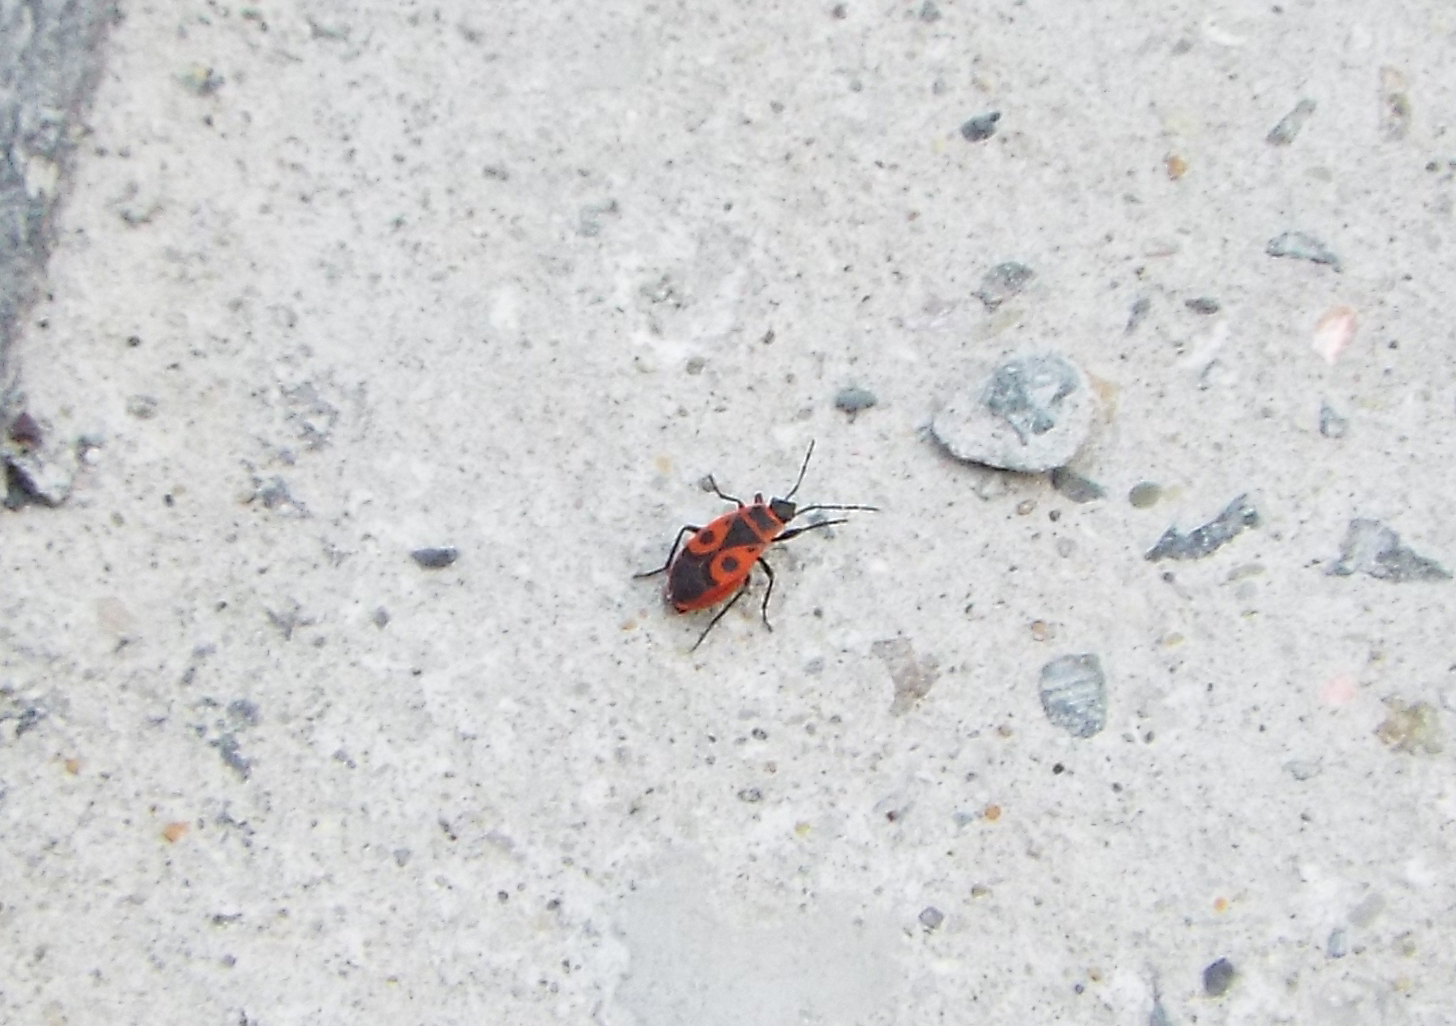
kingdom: Animalia
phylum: Arthropoda
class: Insecta
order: Hemiptera
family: Pyrrhocoridae
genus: Pyrrhocoris
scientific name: Pyrrhocoris apterus
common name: Firebug
